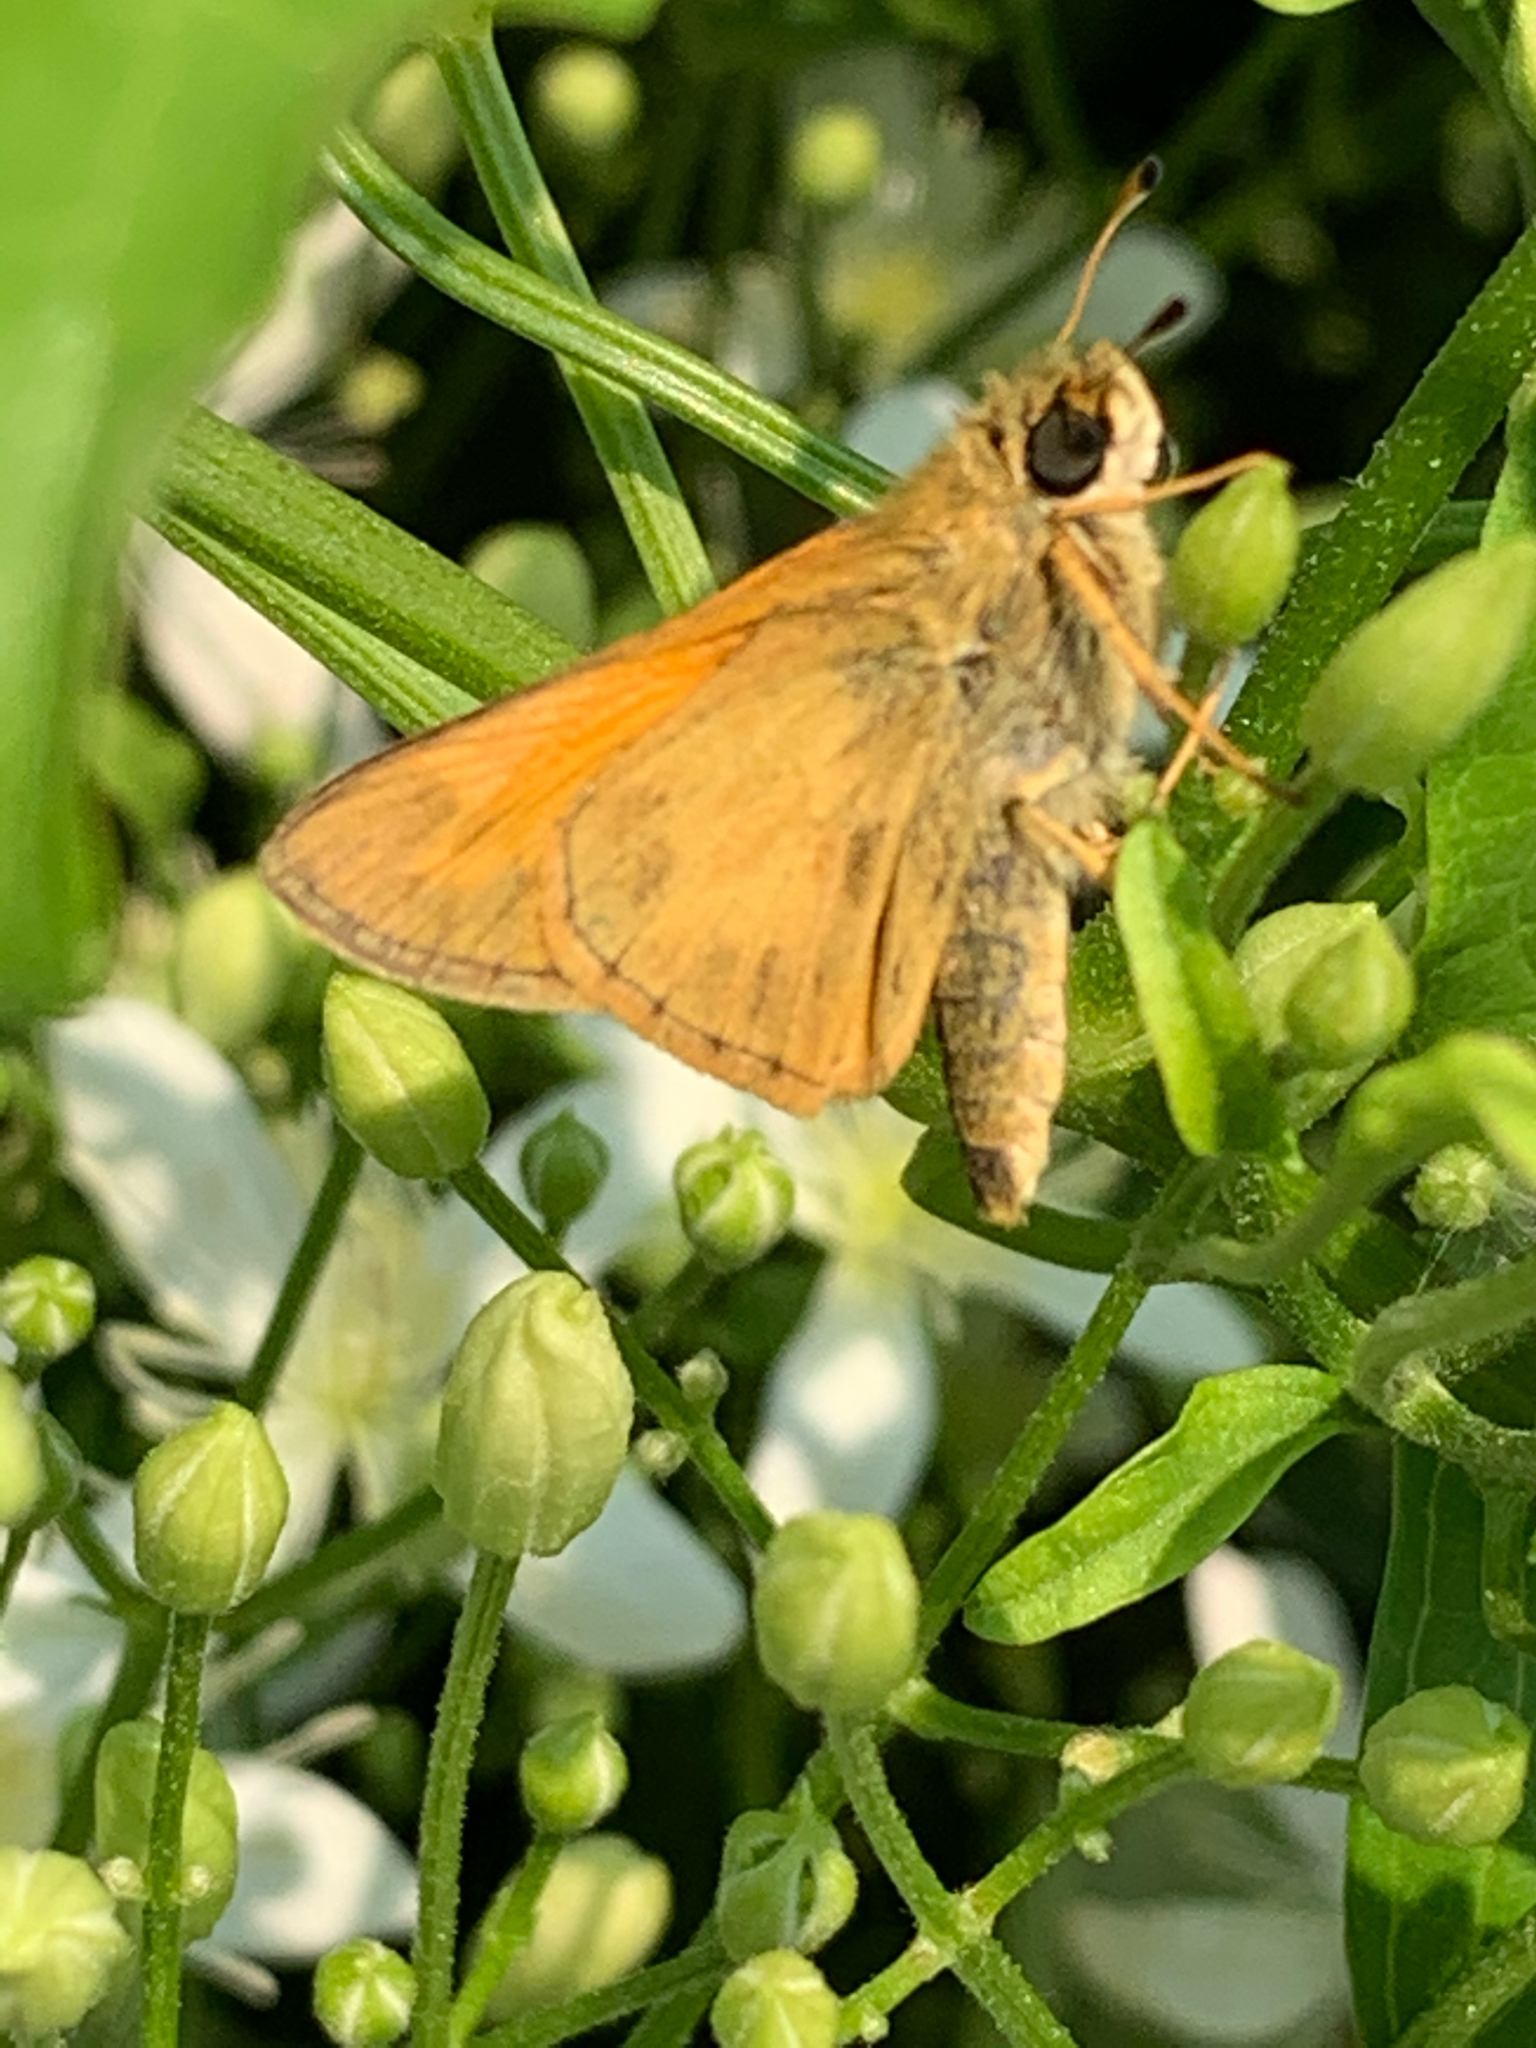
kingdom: Animalia
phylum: Arthropoda
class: Insecta
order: Lepidoptera
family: Hesperiidae
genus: Atalopedes
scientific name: Atalopedes
